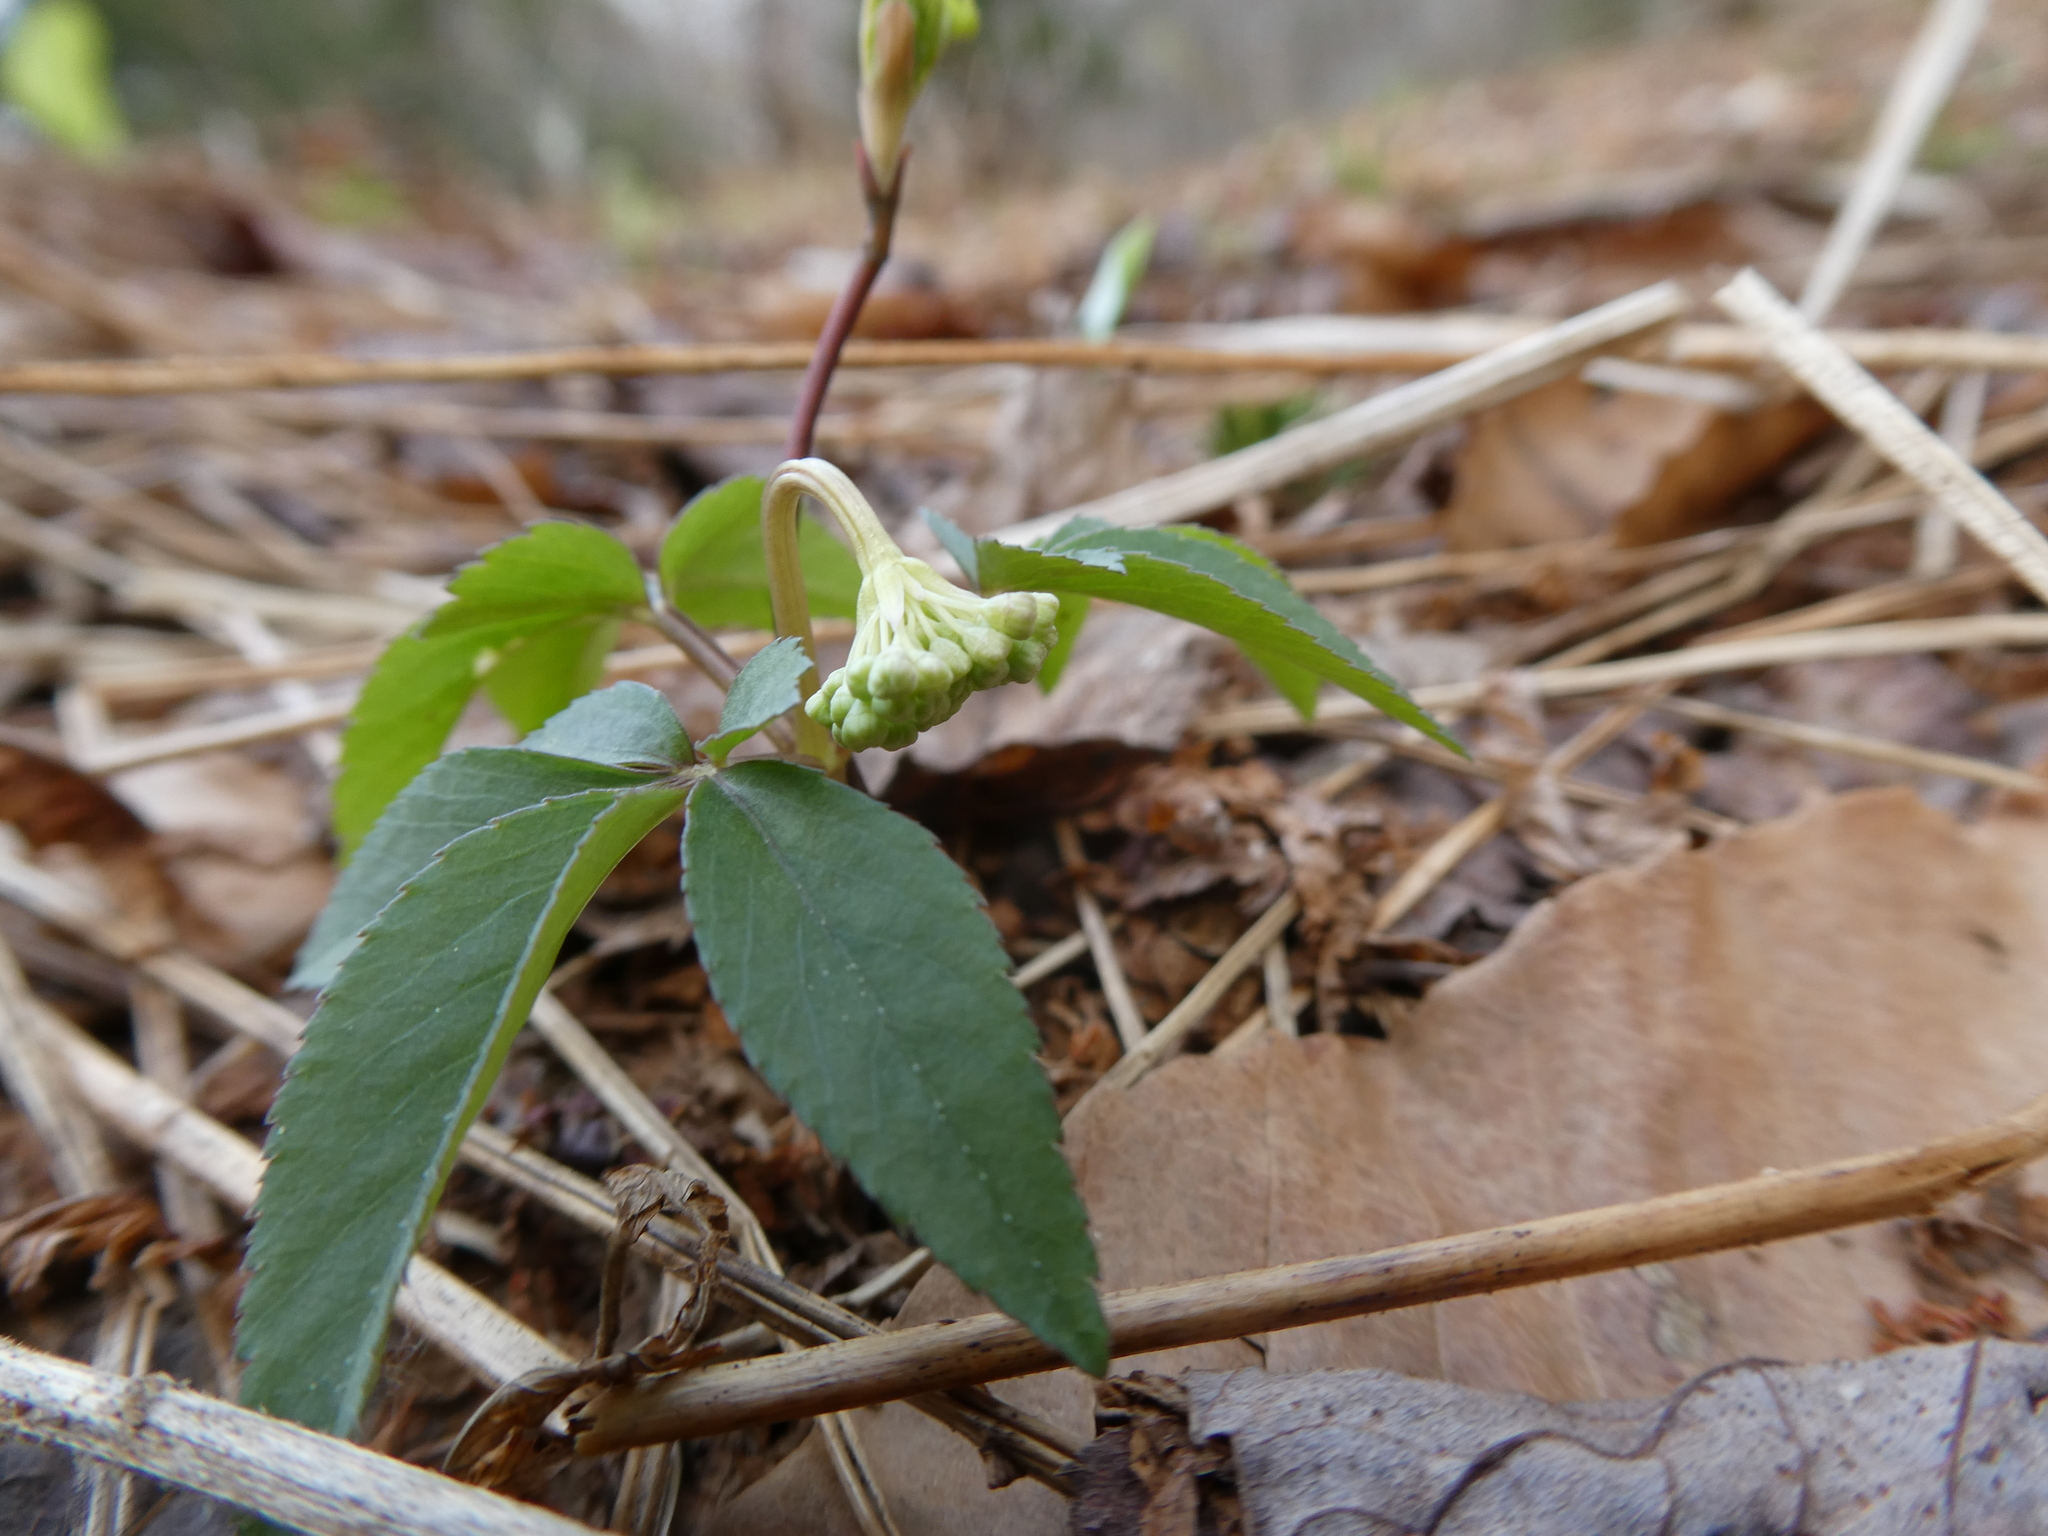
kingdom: Plantae
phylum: Tracheophyta
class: Magnoliopsida
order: Apiales
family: Araliaceae
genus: Panax
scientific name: Panax trifolius
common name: Dwarf ginseng
